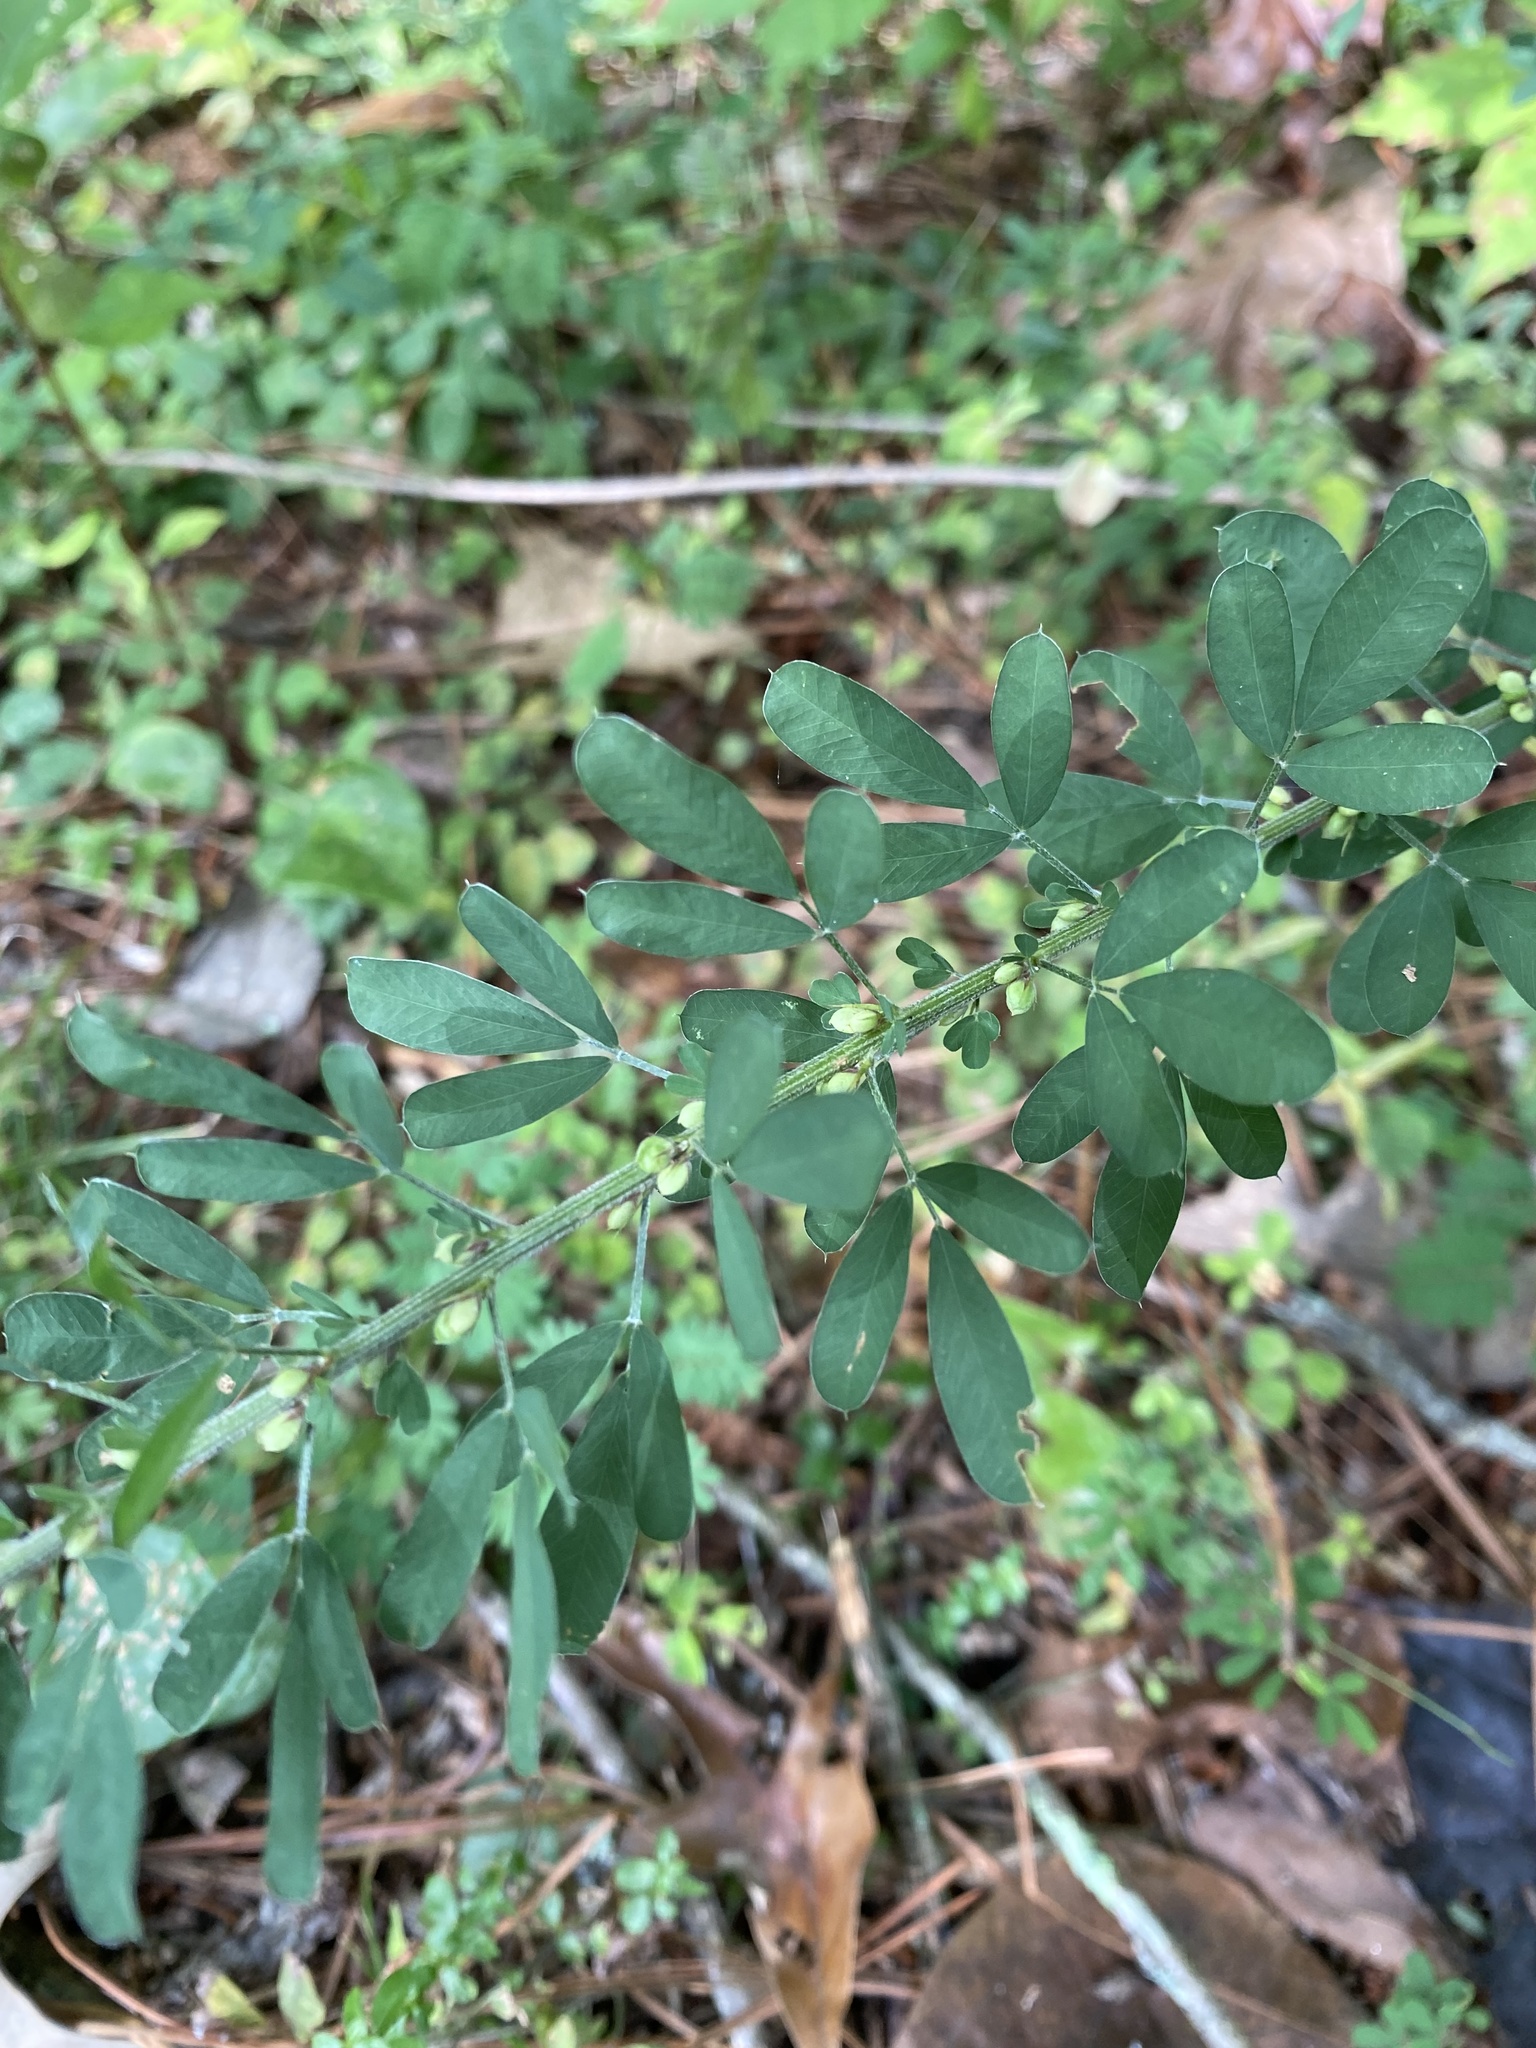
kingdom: Plantae
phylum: Tracheophyta
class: Magnoliopsida
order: Fabales
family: Fabaceae
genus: Lespedeza
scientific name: Lespedeza cuneata
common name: Chinese bush-clover
